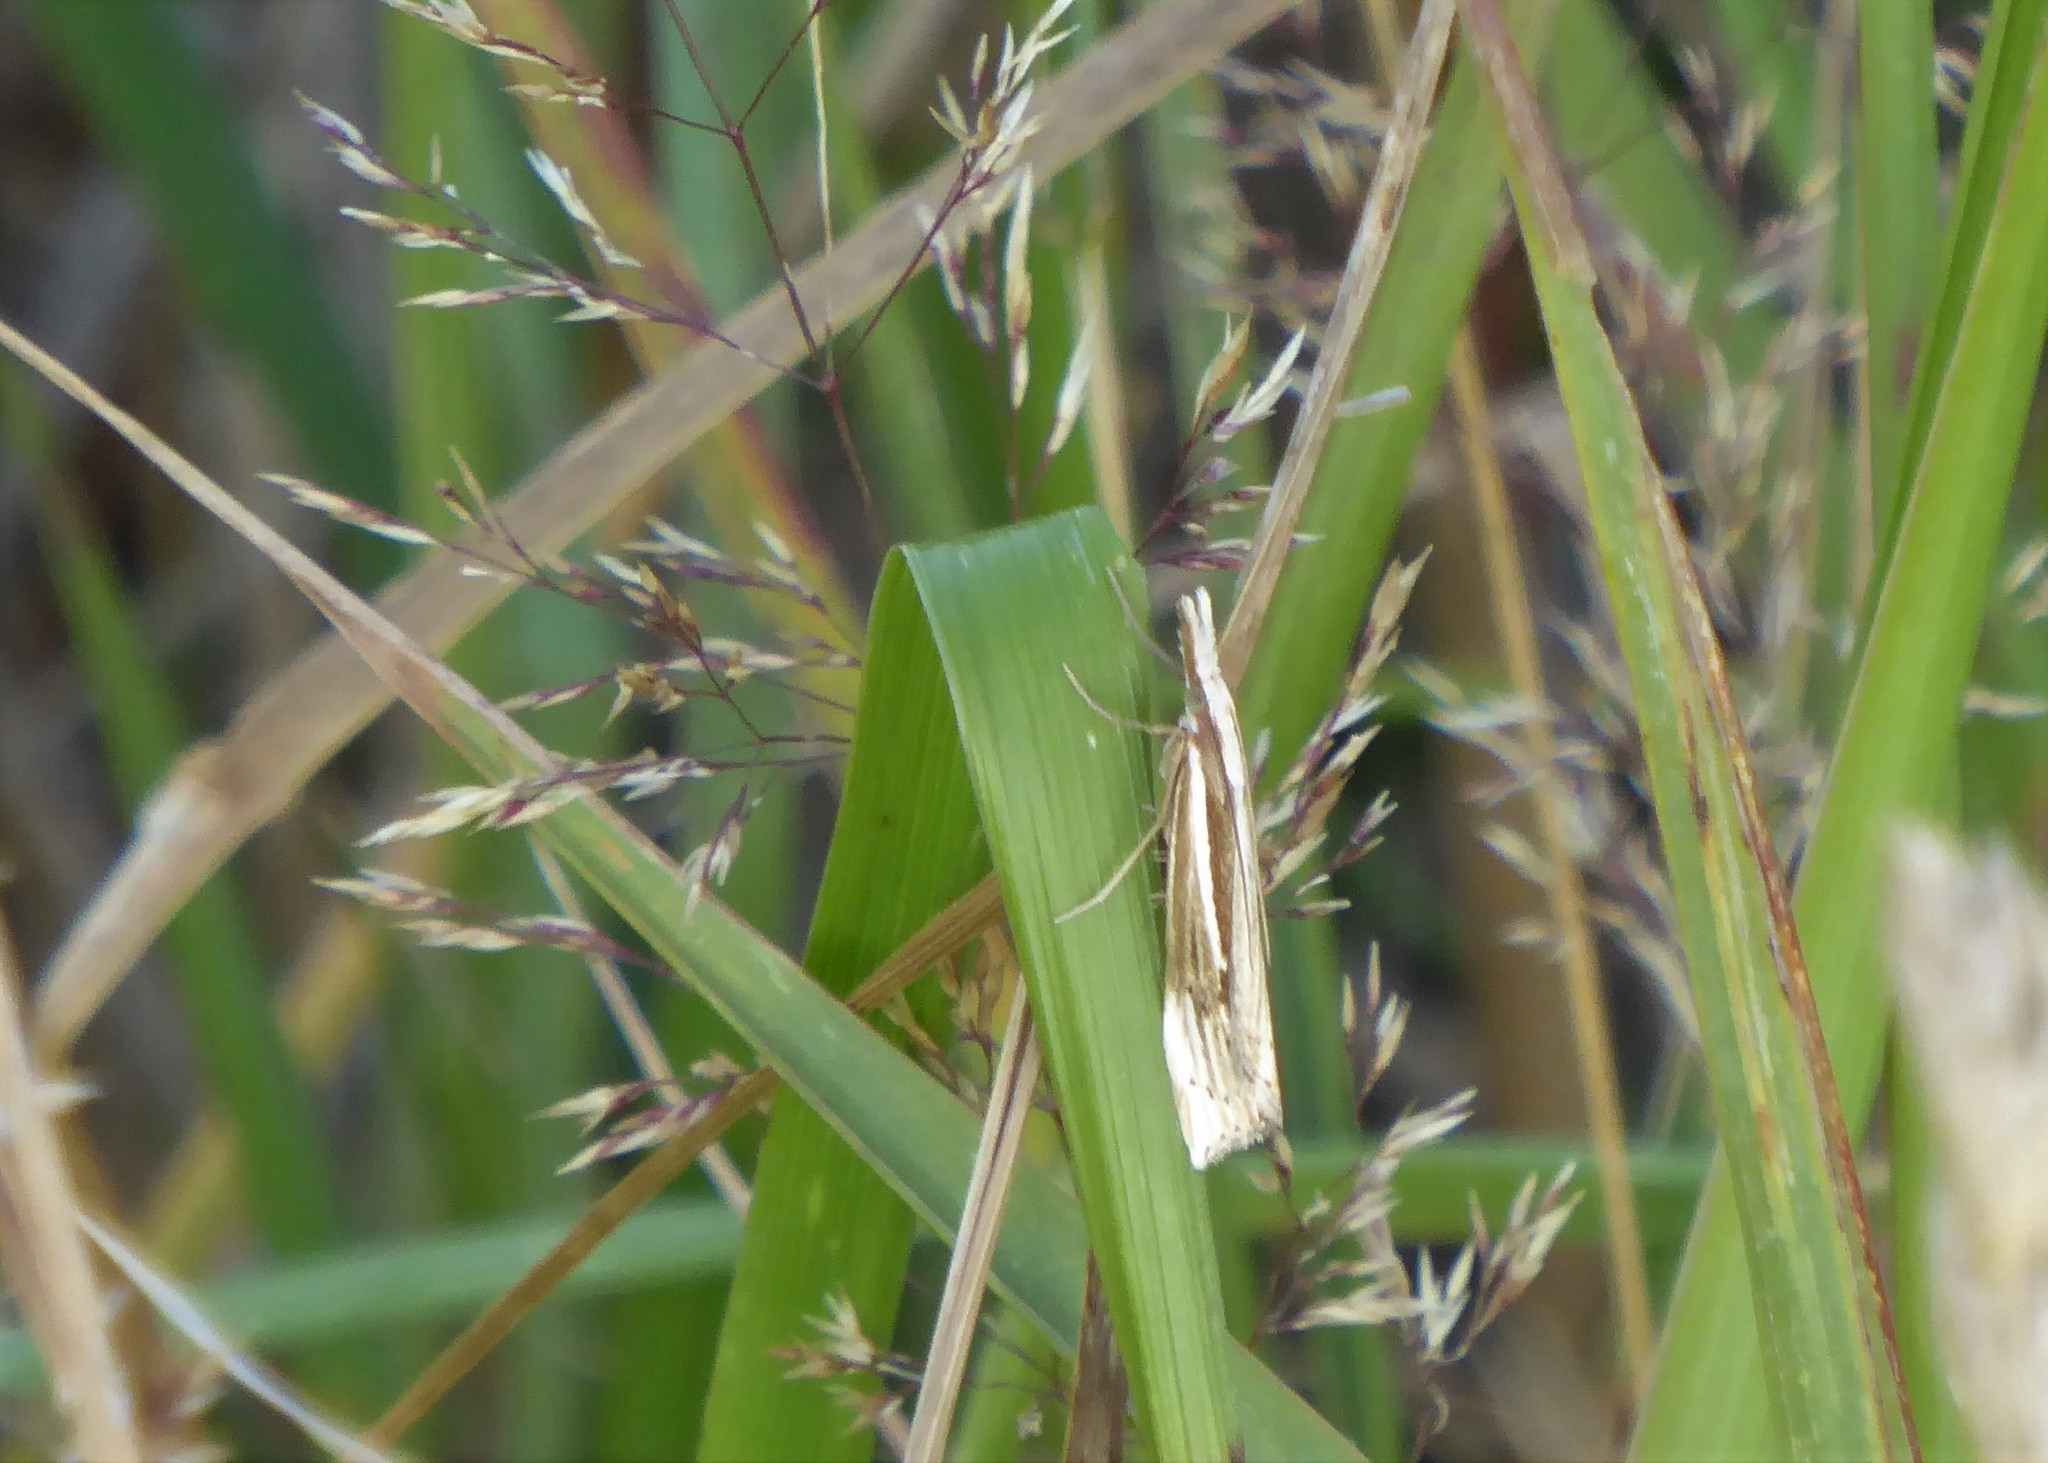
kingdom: Animalia
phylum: Arthropoda
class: Insecta
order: Lepidoptera
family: Crambidae
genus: Orocrambus
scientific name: Orocrambus ramosellus
